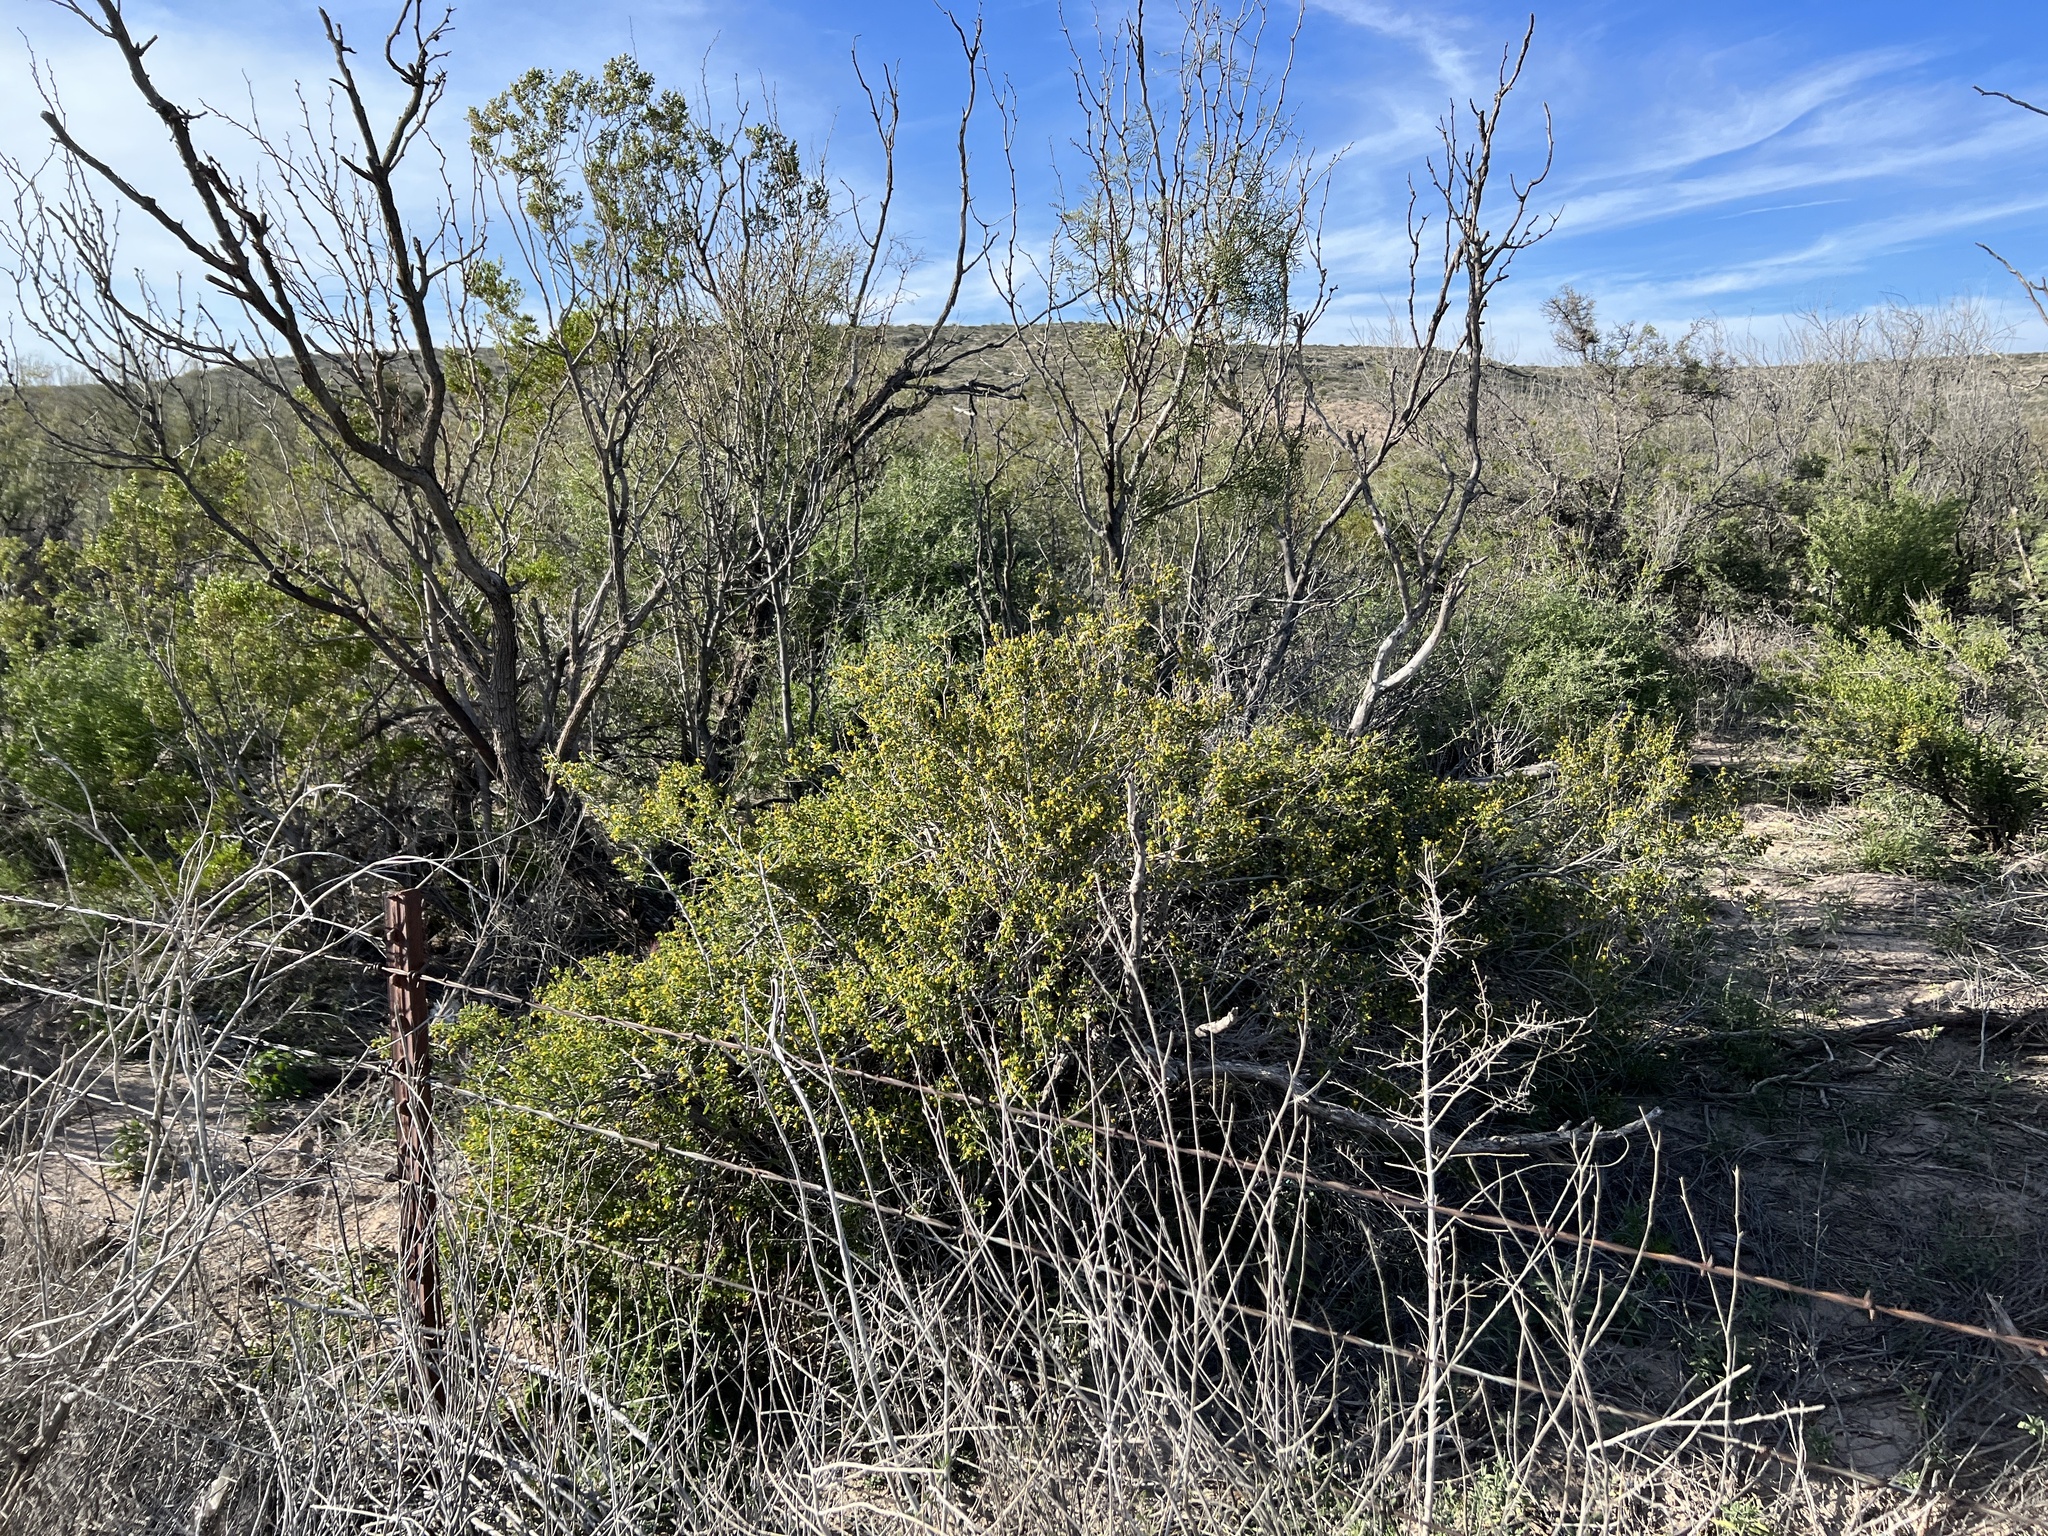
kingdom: Plantae
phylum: Tracheophyta
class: Magnoliopsida
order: Zygophyllales
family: Zygophyllaceae
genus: Larrea
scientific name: Larrea tridentata
